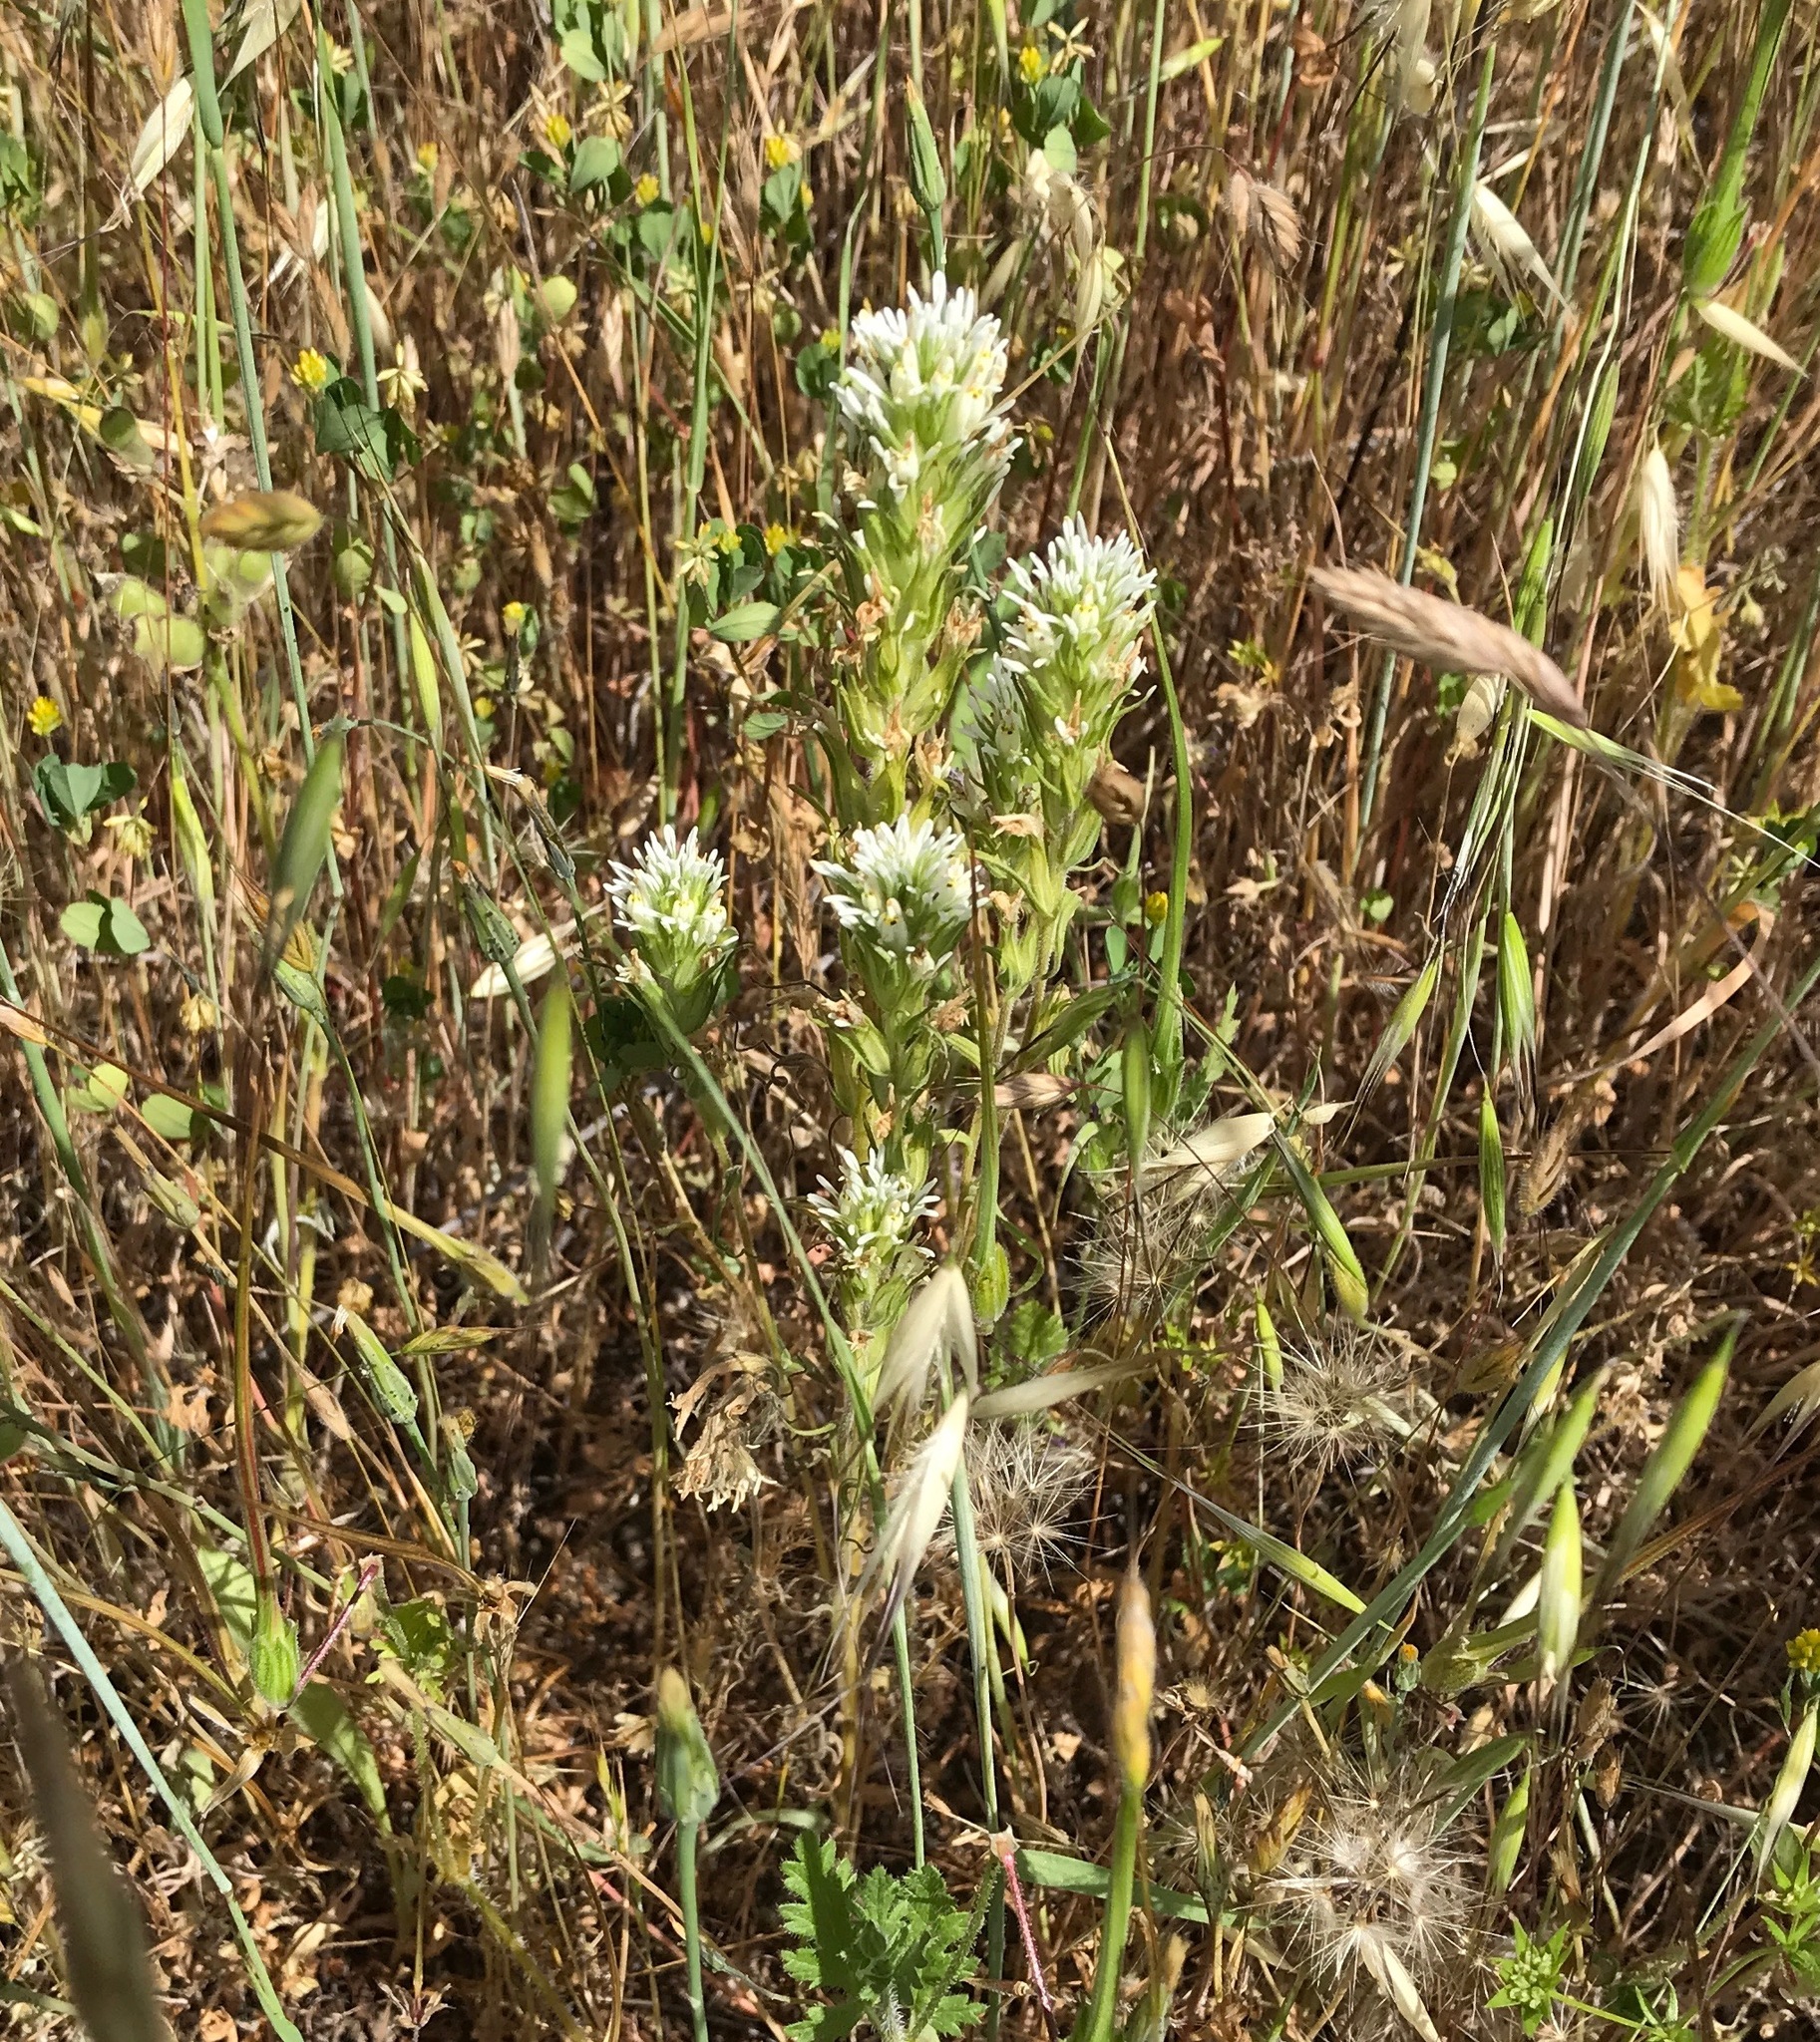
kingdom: Plantae
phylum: Tracheophyta
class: Magnoliopsida
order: Lamiales
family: Orobanchaceae
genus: Castilleja
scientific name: Castilleja attenuata
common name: Valley tassels
